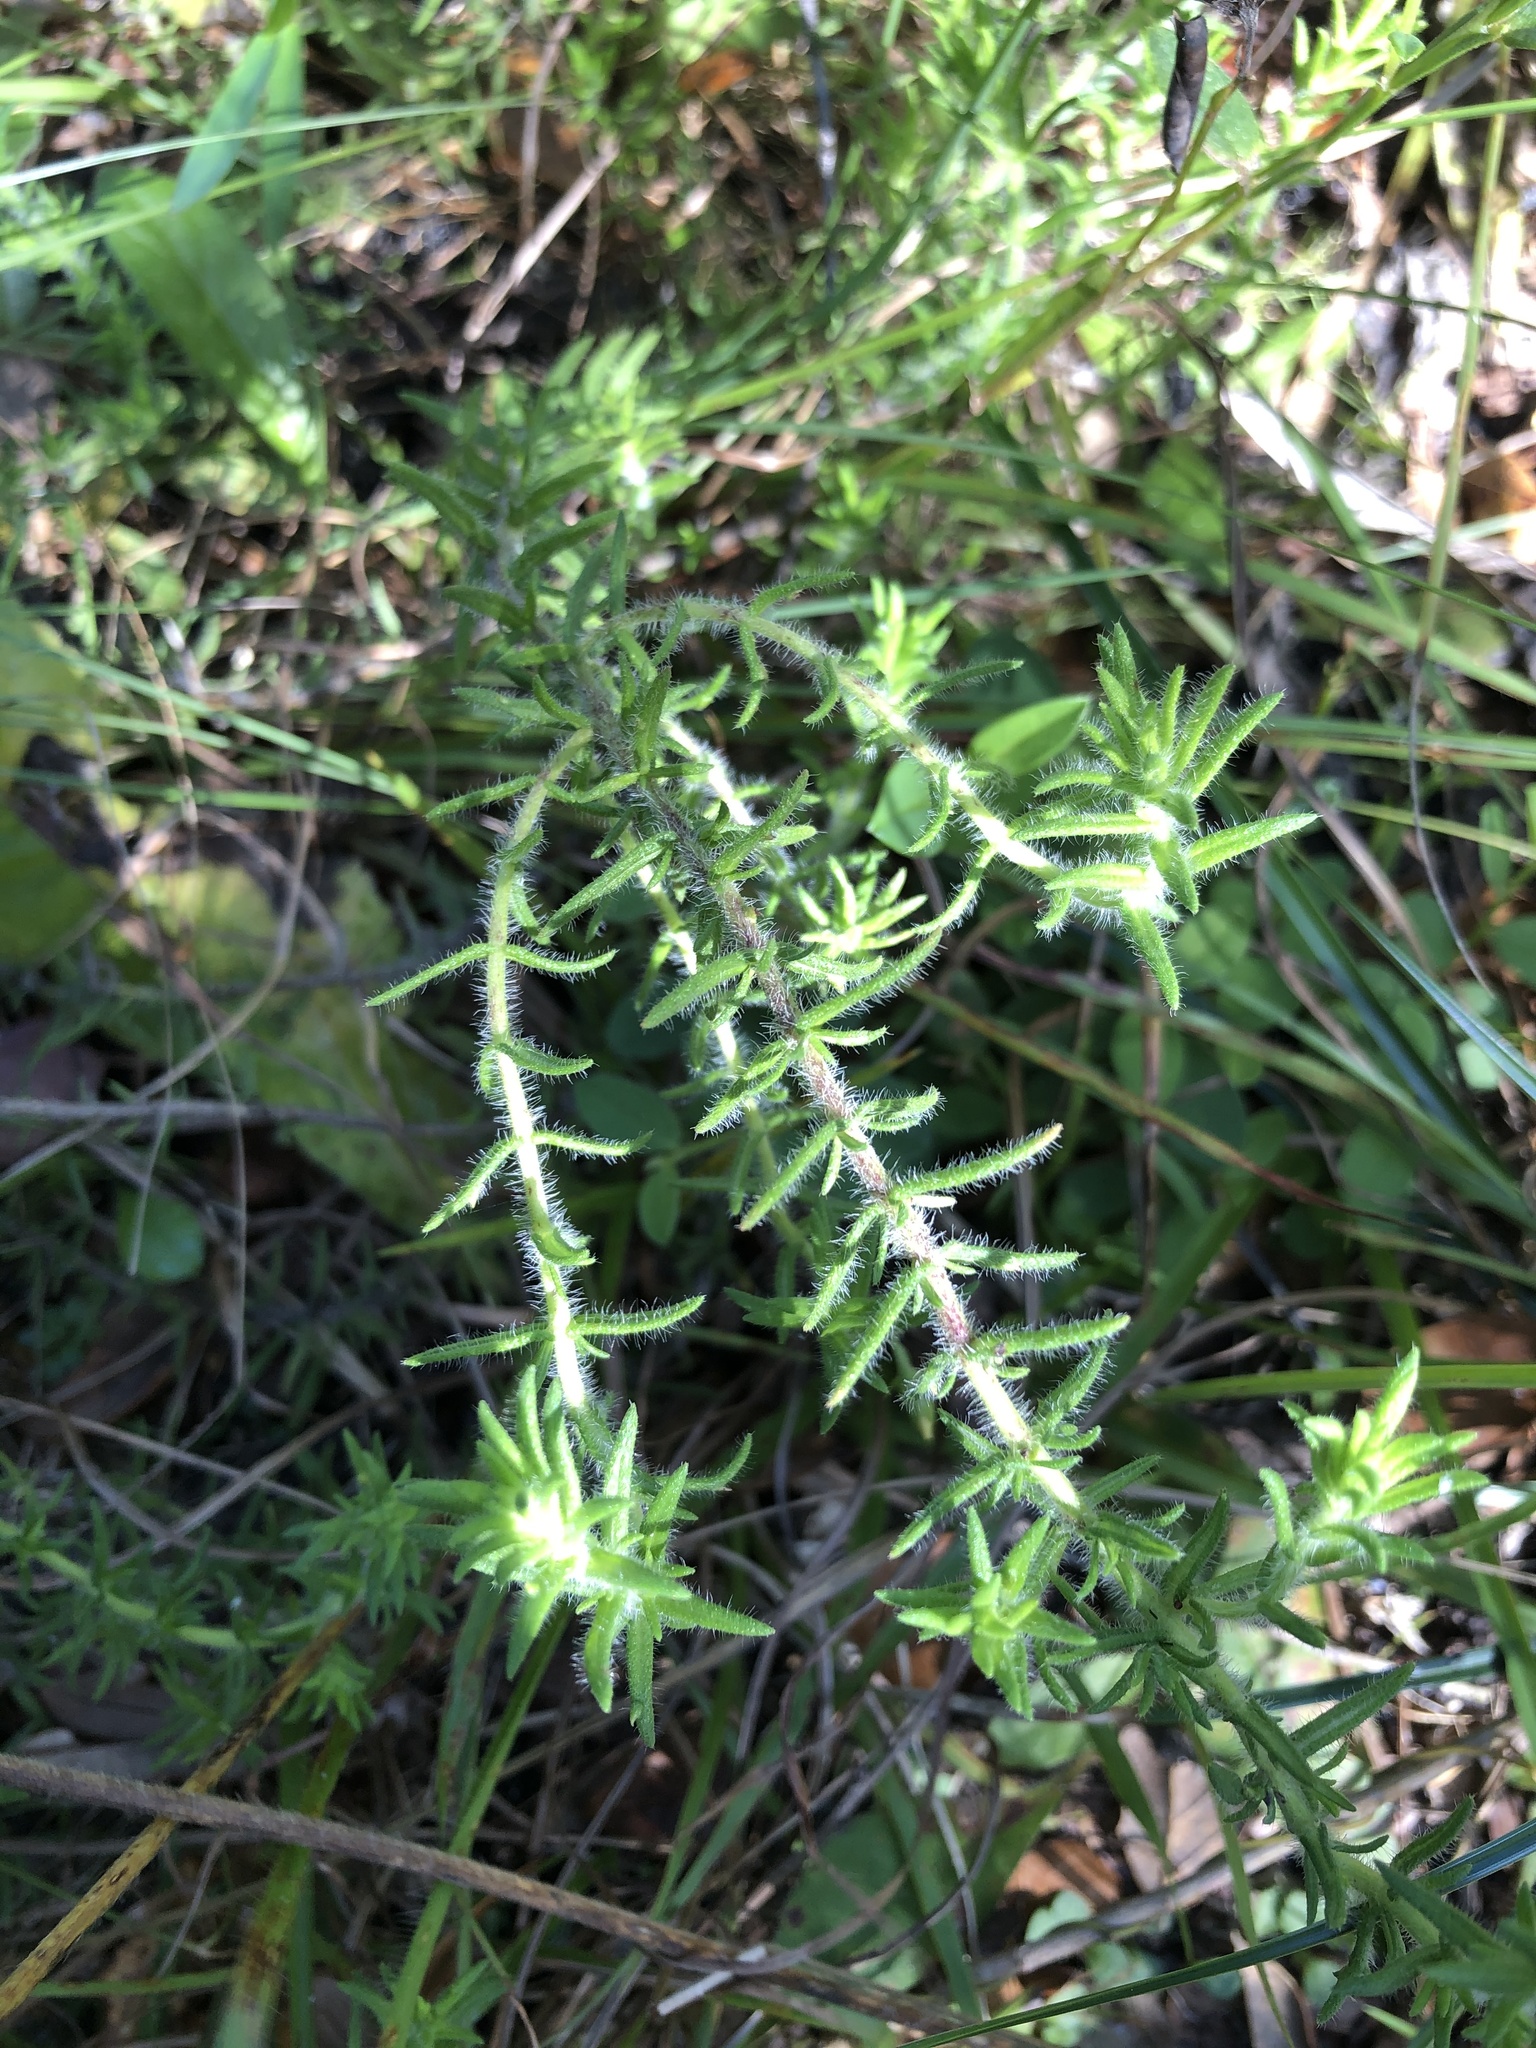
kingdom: Plantae
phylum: Tracheophyta
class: Magnoliopsida
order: Lamiales
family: Lamiaceae
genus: Piloblephis
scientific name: Piloblephis rigida
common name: Wild pennyroyal
